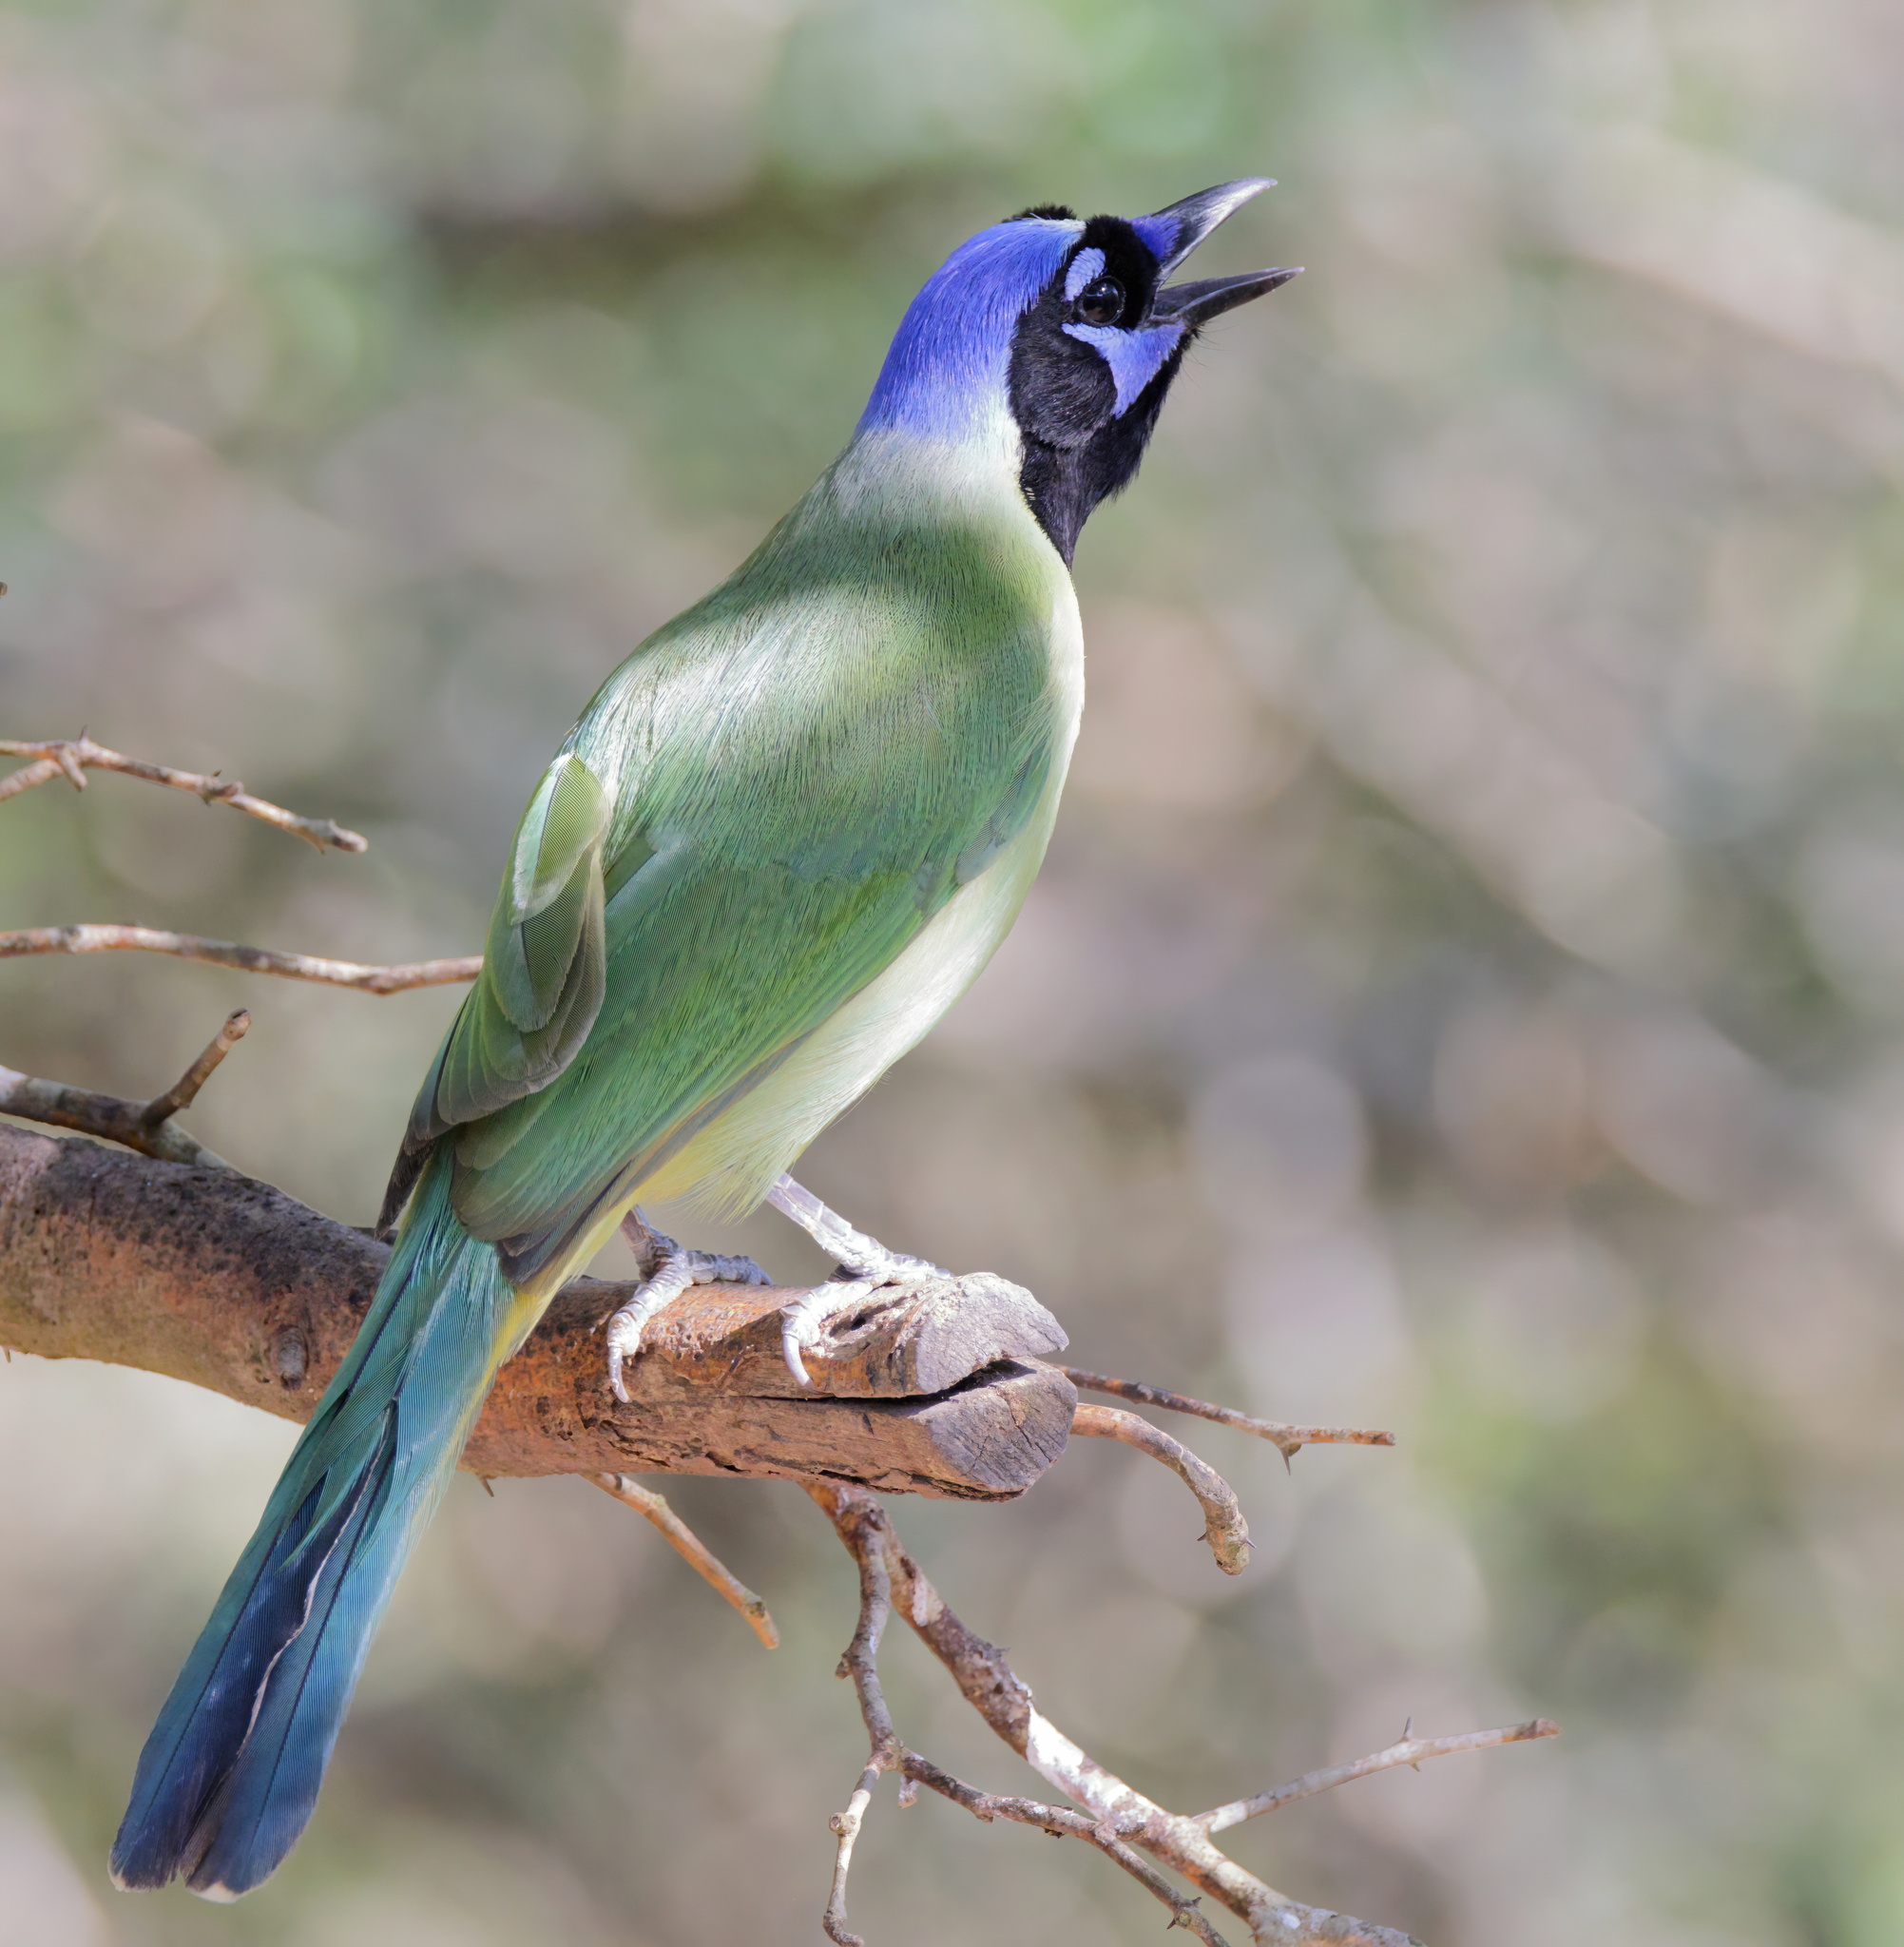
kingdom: Animalia
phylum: Chordata
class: Aves
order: Passeriformes
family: Corvidae
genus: Cyanocorax
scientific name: Cyanocorax yncas
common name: Green jay
